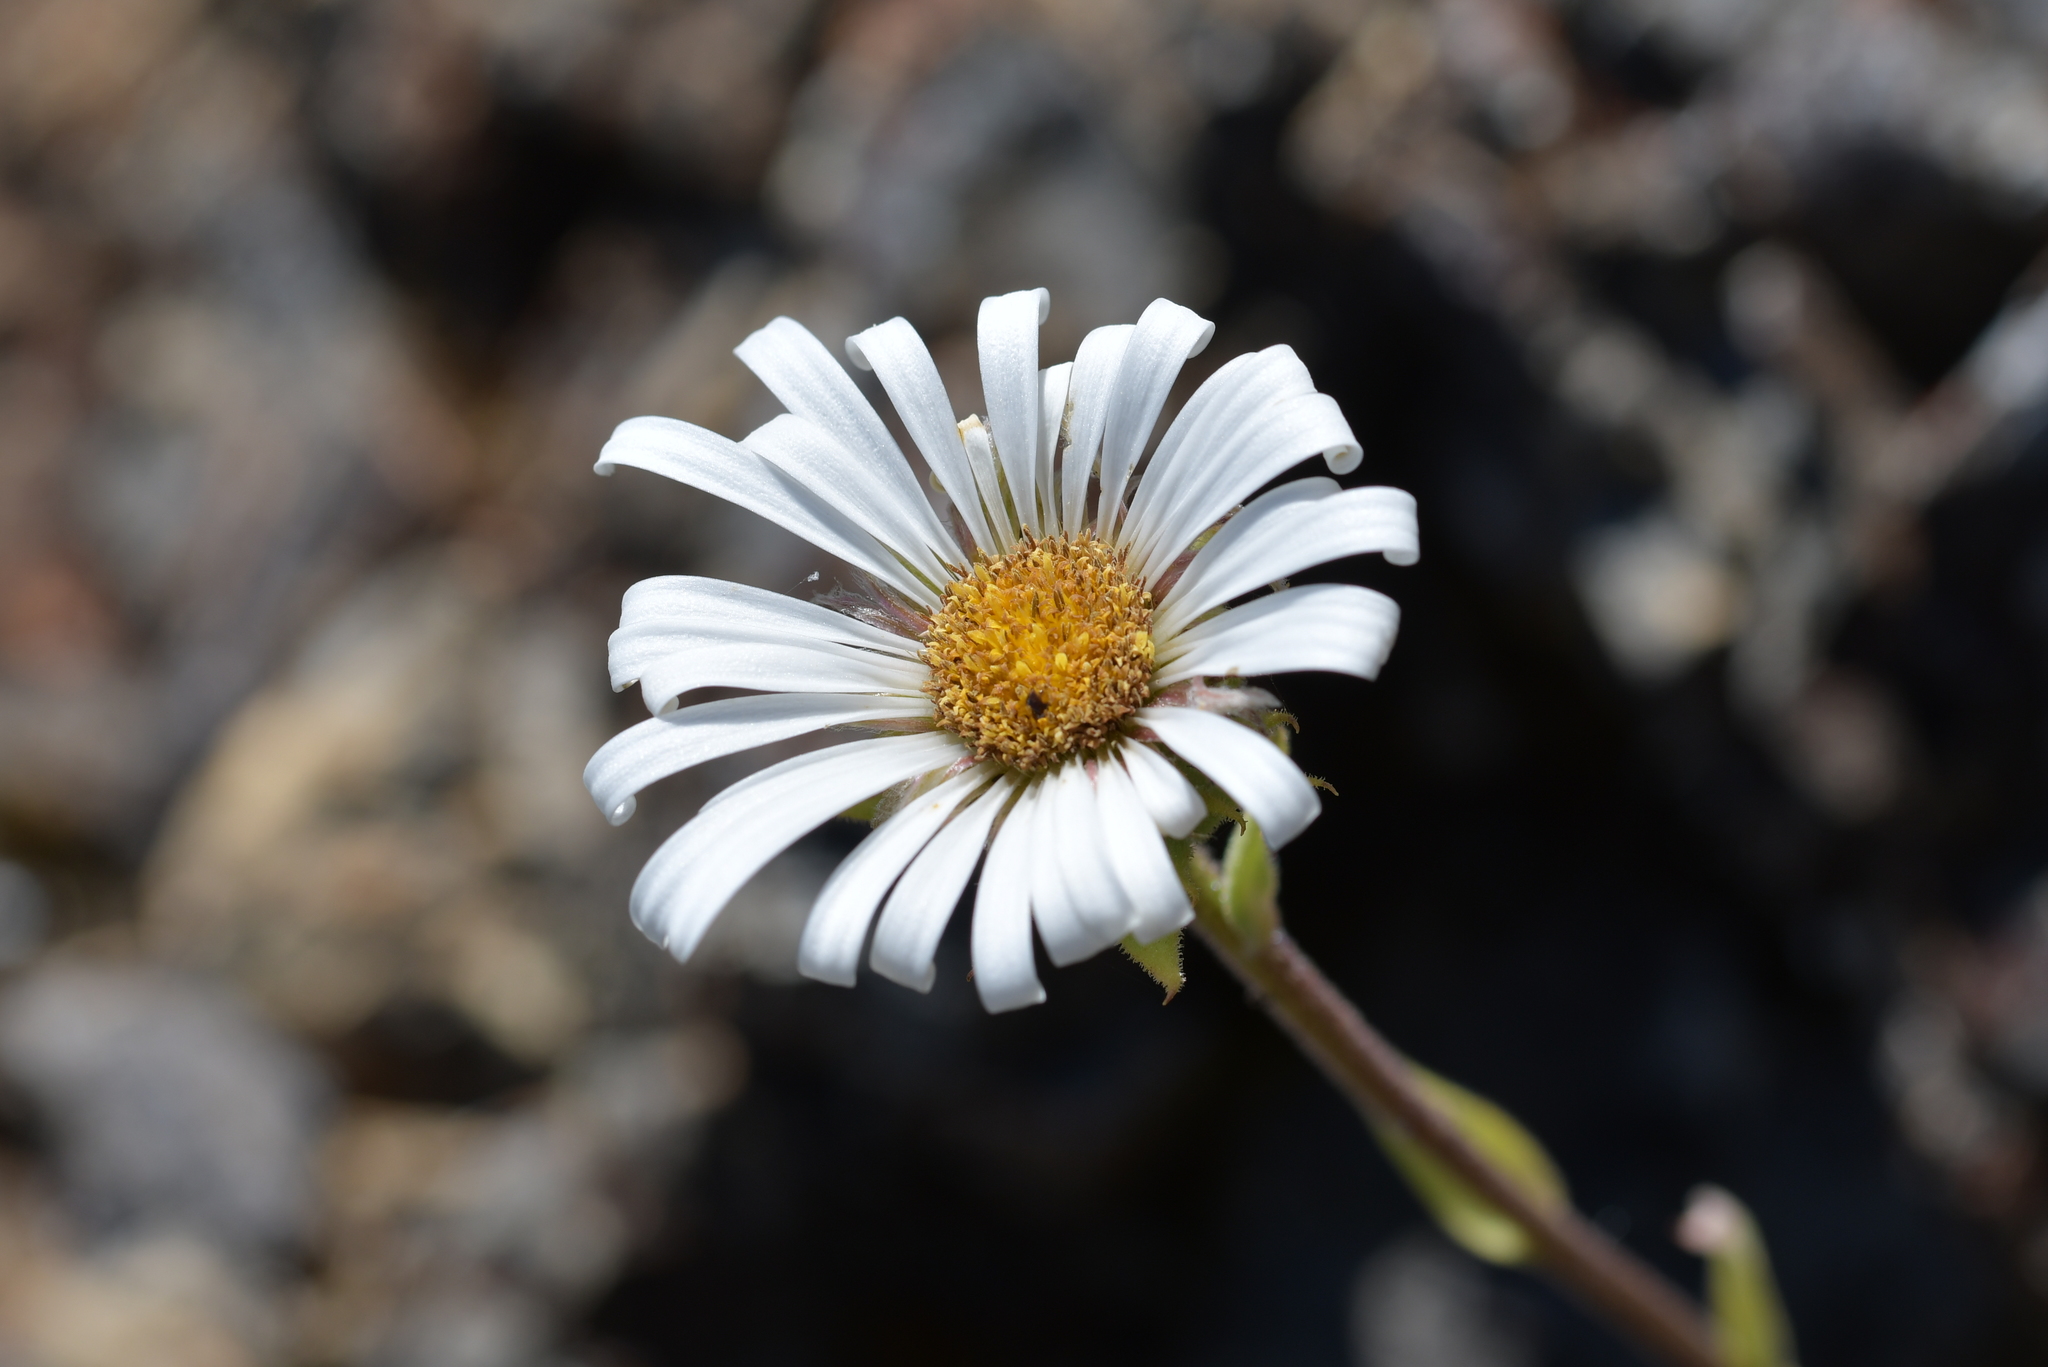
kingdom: Plantae
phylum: Tracheophyta
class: Magnoliopsida
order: Asterales
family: Asteraceae
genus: Celmisia
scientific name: Celmisia hieraciifolia
